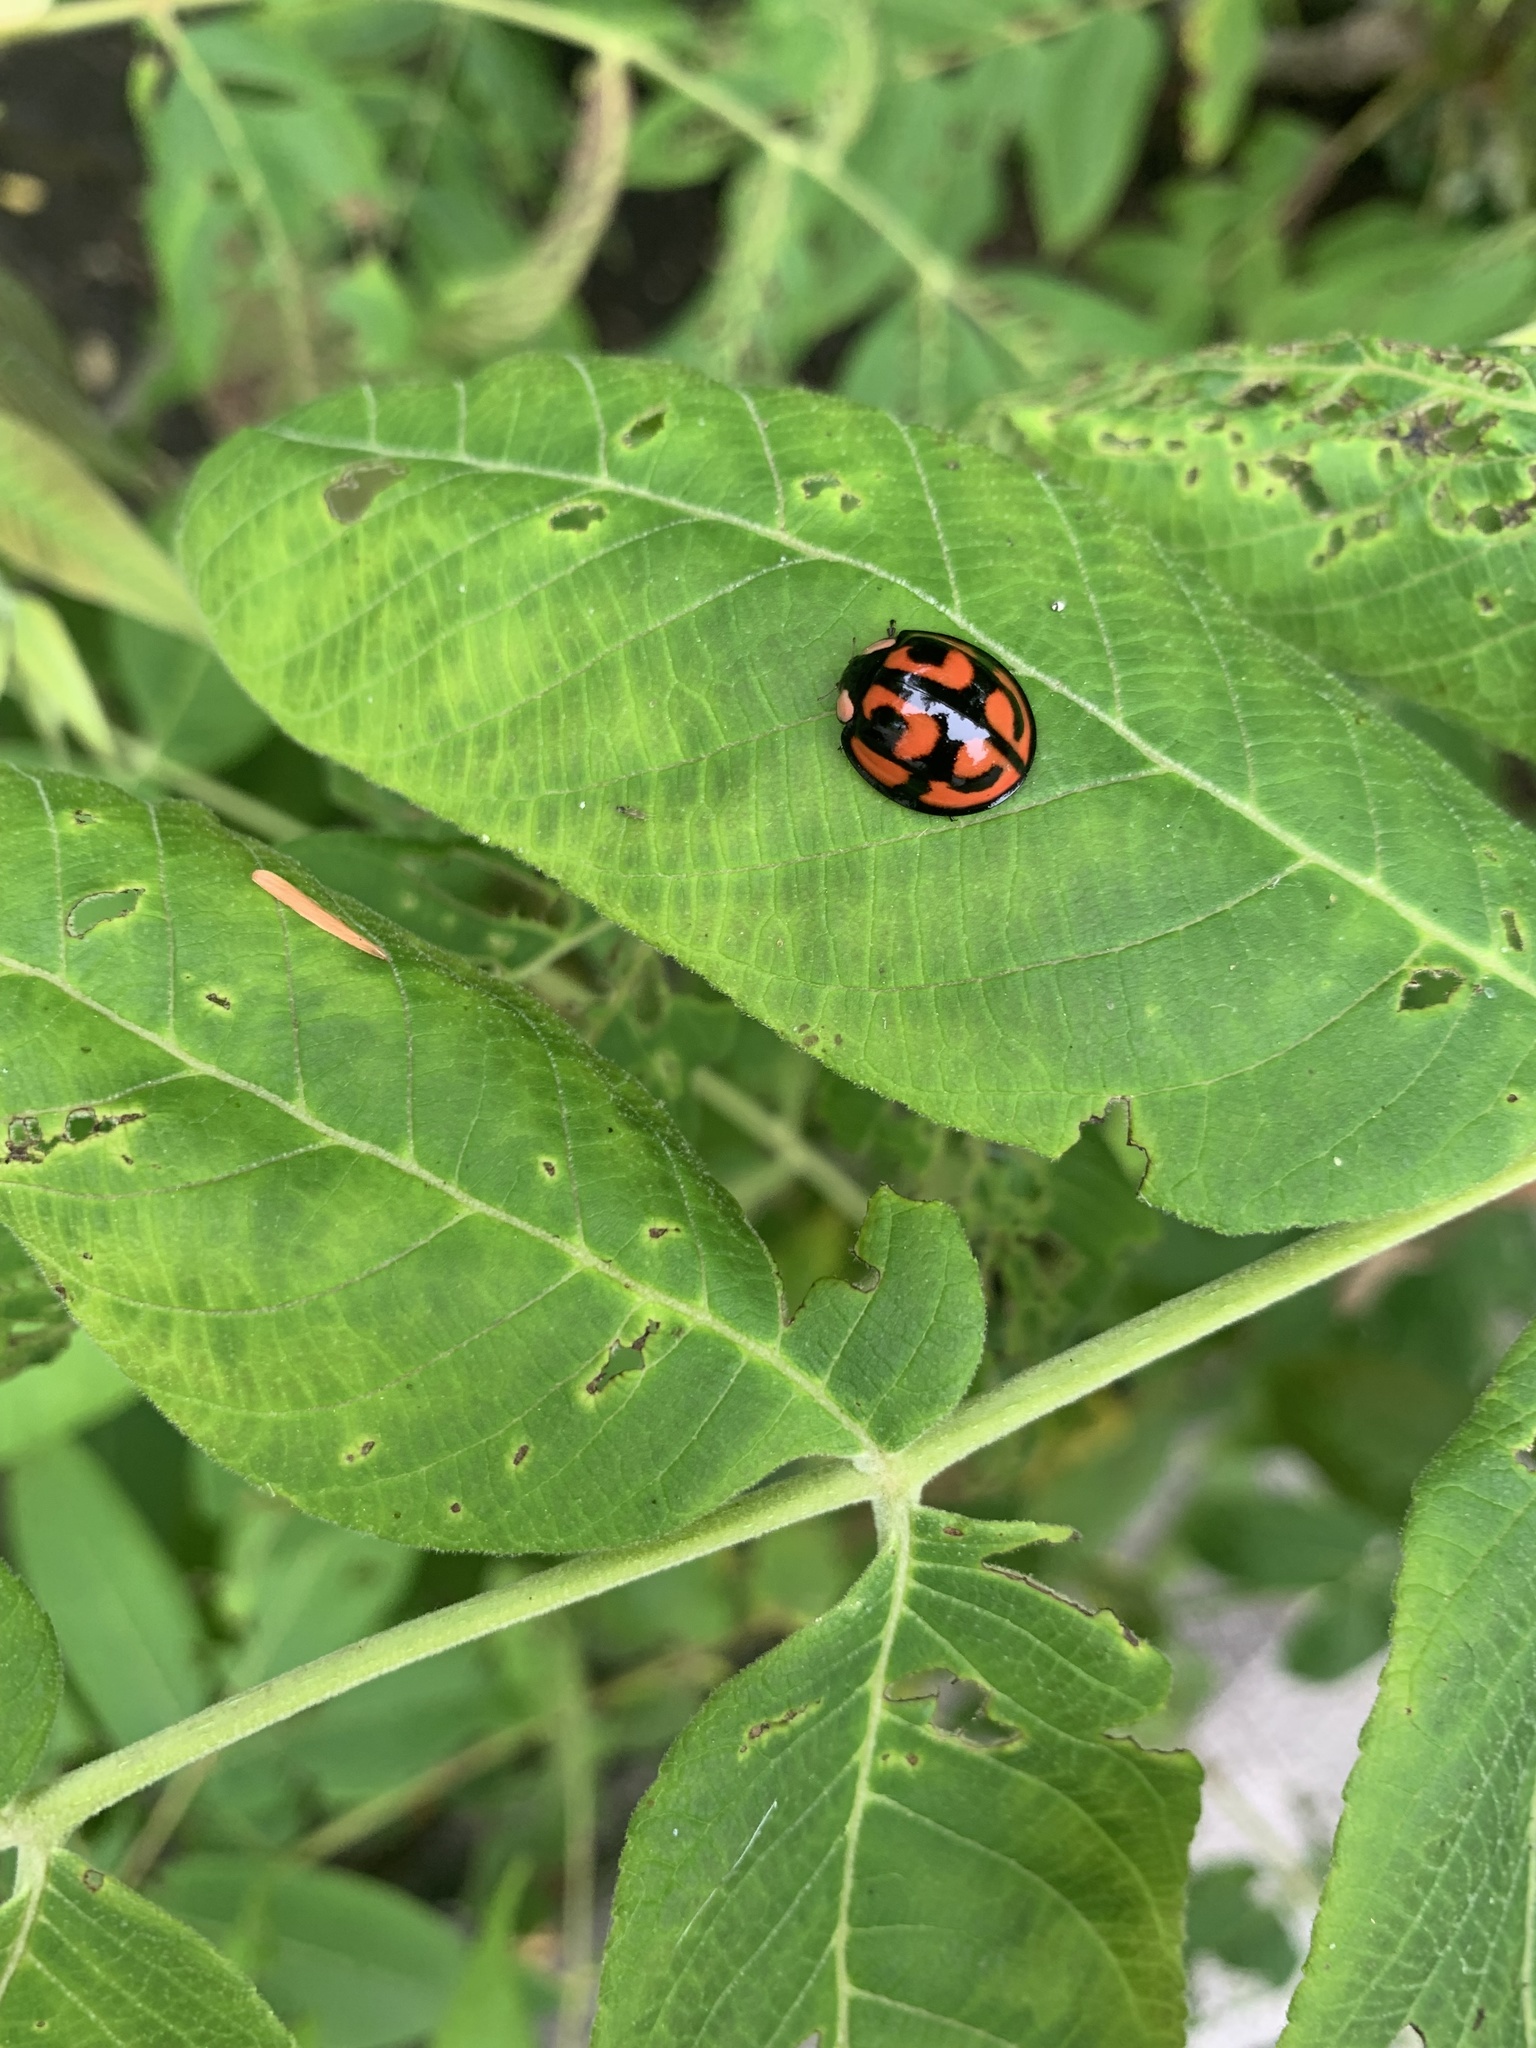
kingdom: Animalia
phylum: Arthropoda
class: Insecta
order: Coleoptera
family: Coccinellidae
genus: Aiolocaria
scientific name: Aiolocaria hexaspilota
